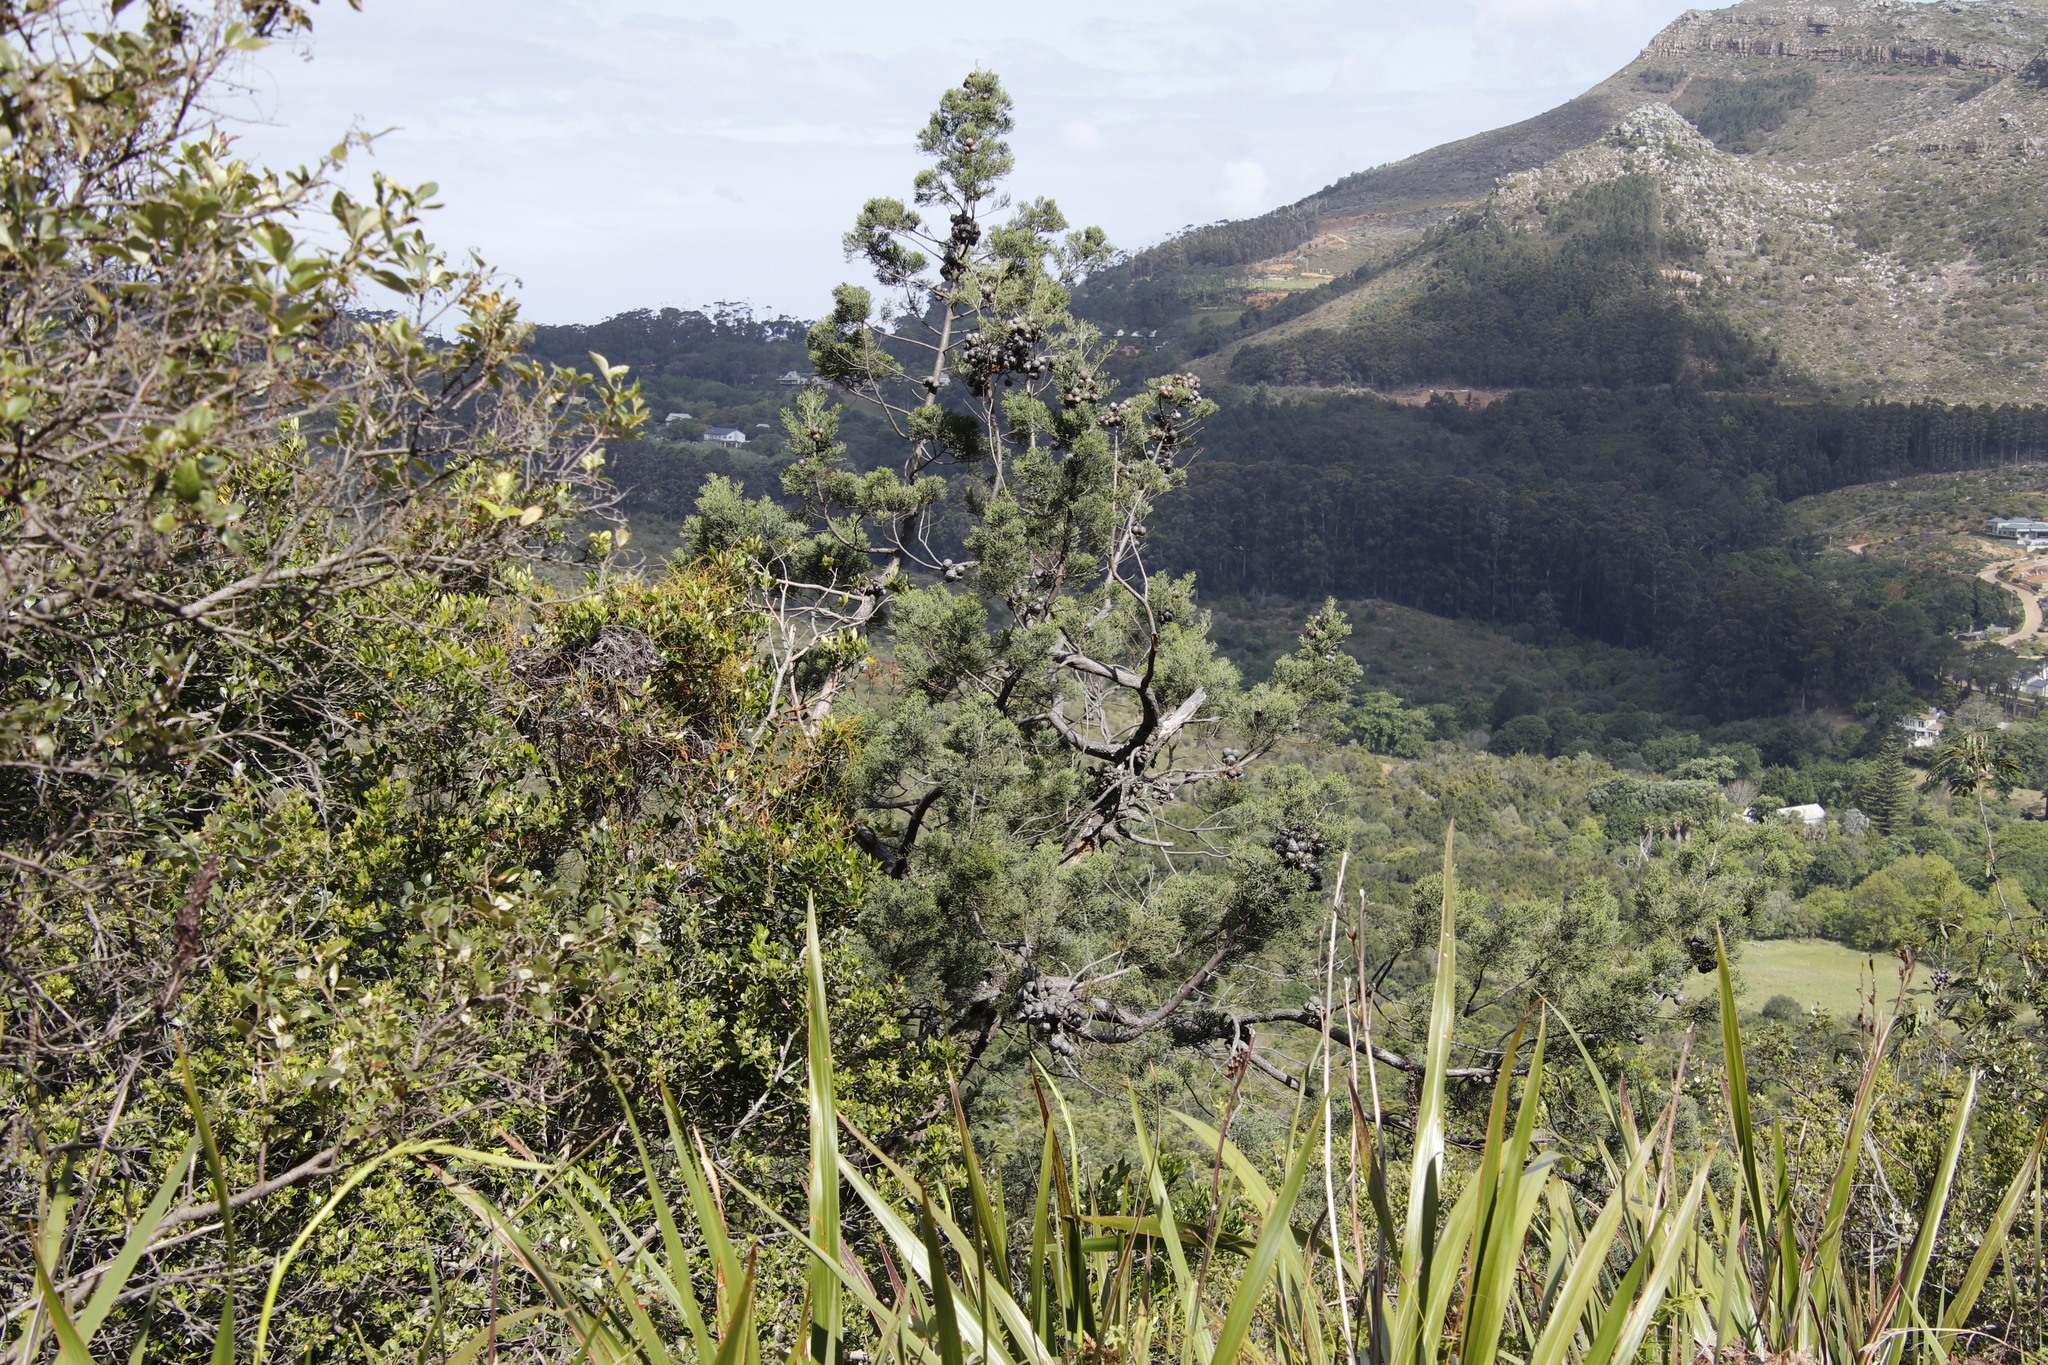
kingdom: Plantae
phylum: Tracheophyta
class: Pinopsida
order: Pinales
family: Cupressaceae
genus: Widdringtonia
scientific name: Widdringtonia nodiflora
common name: Cape cypress
